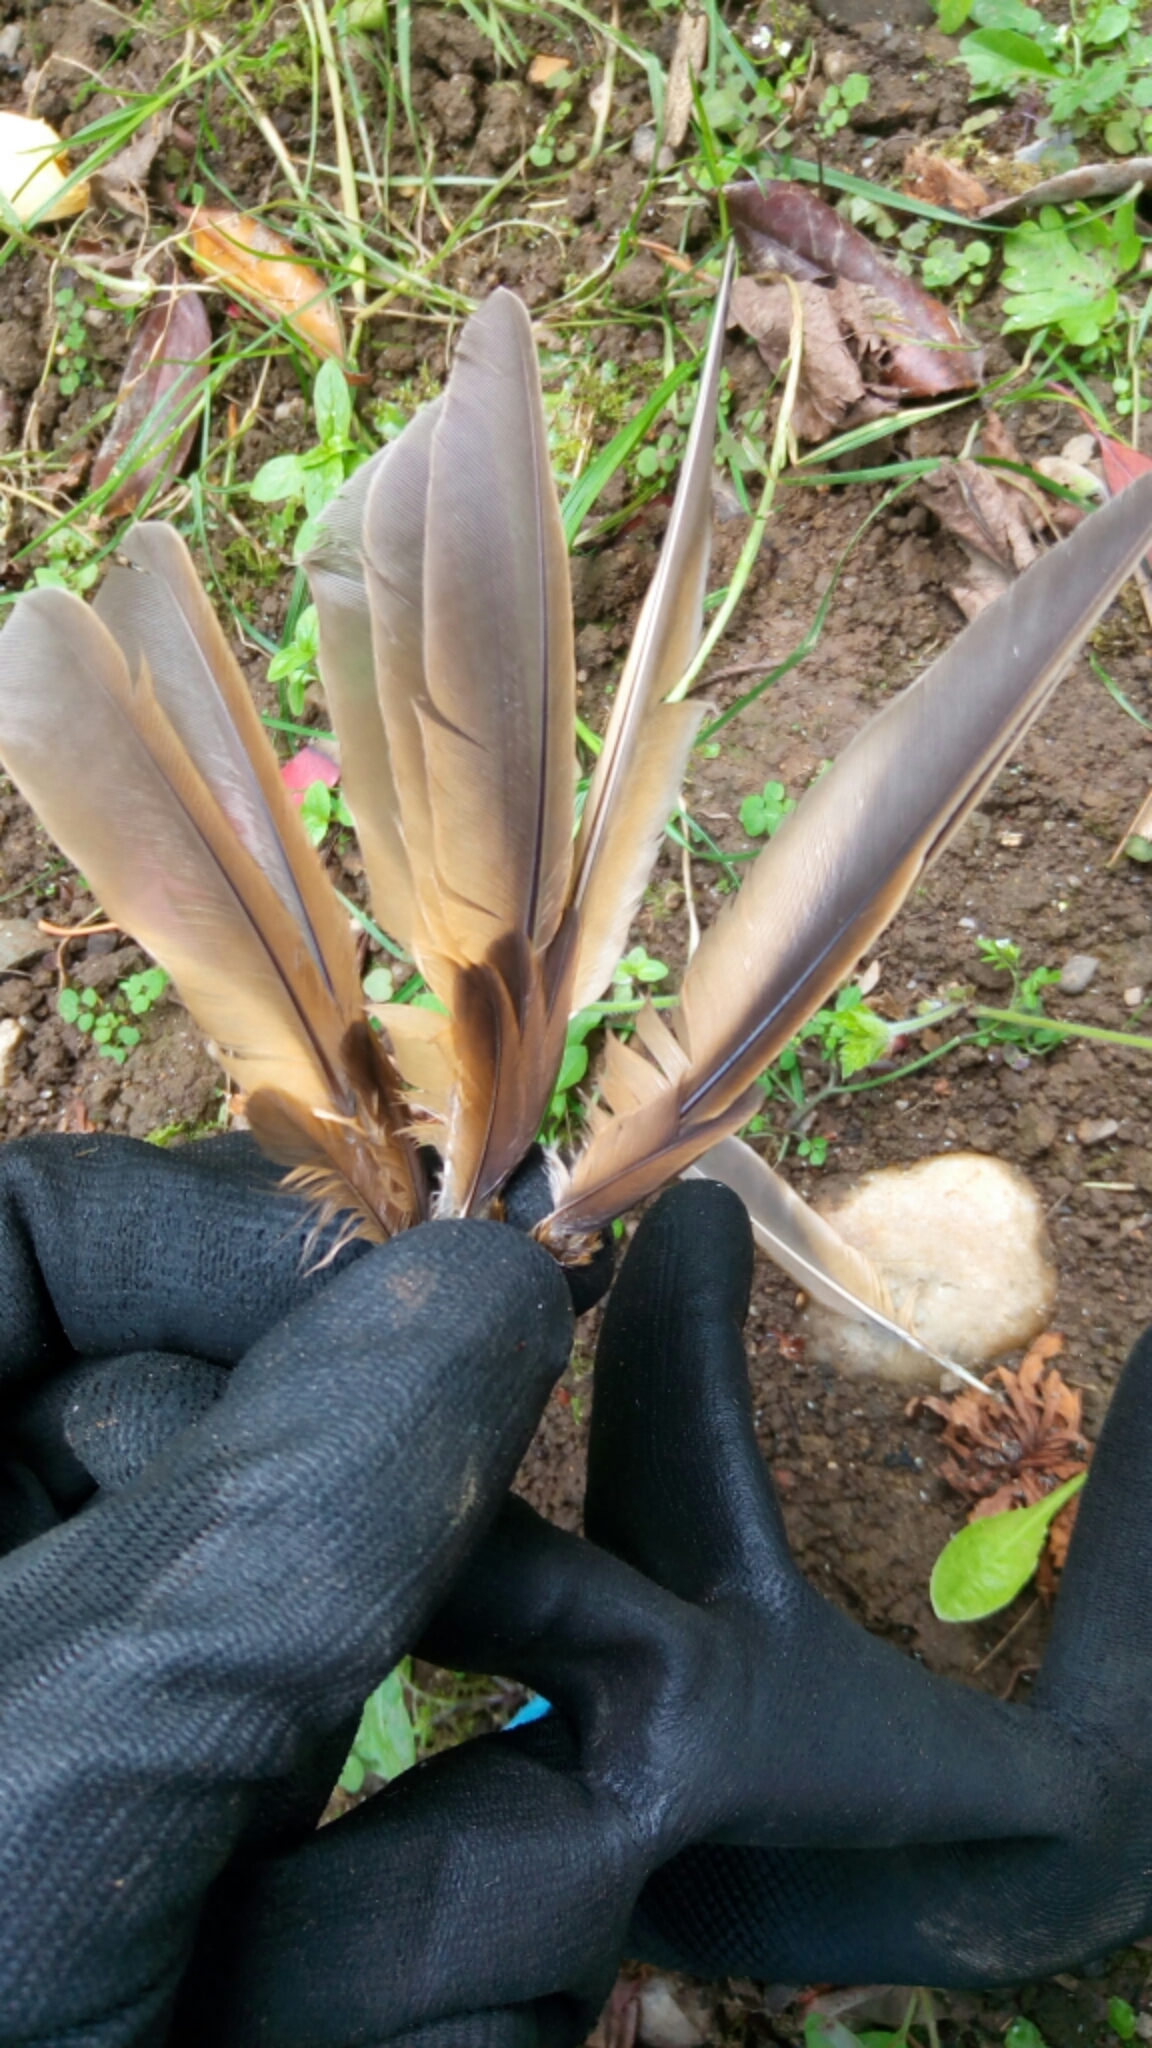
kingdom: Animalia
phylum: Chordata
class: Aves
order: Passeriformes
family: Turdidae
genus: Turdus
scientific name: Turdus philomelos
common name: Song thrush
